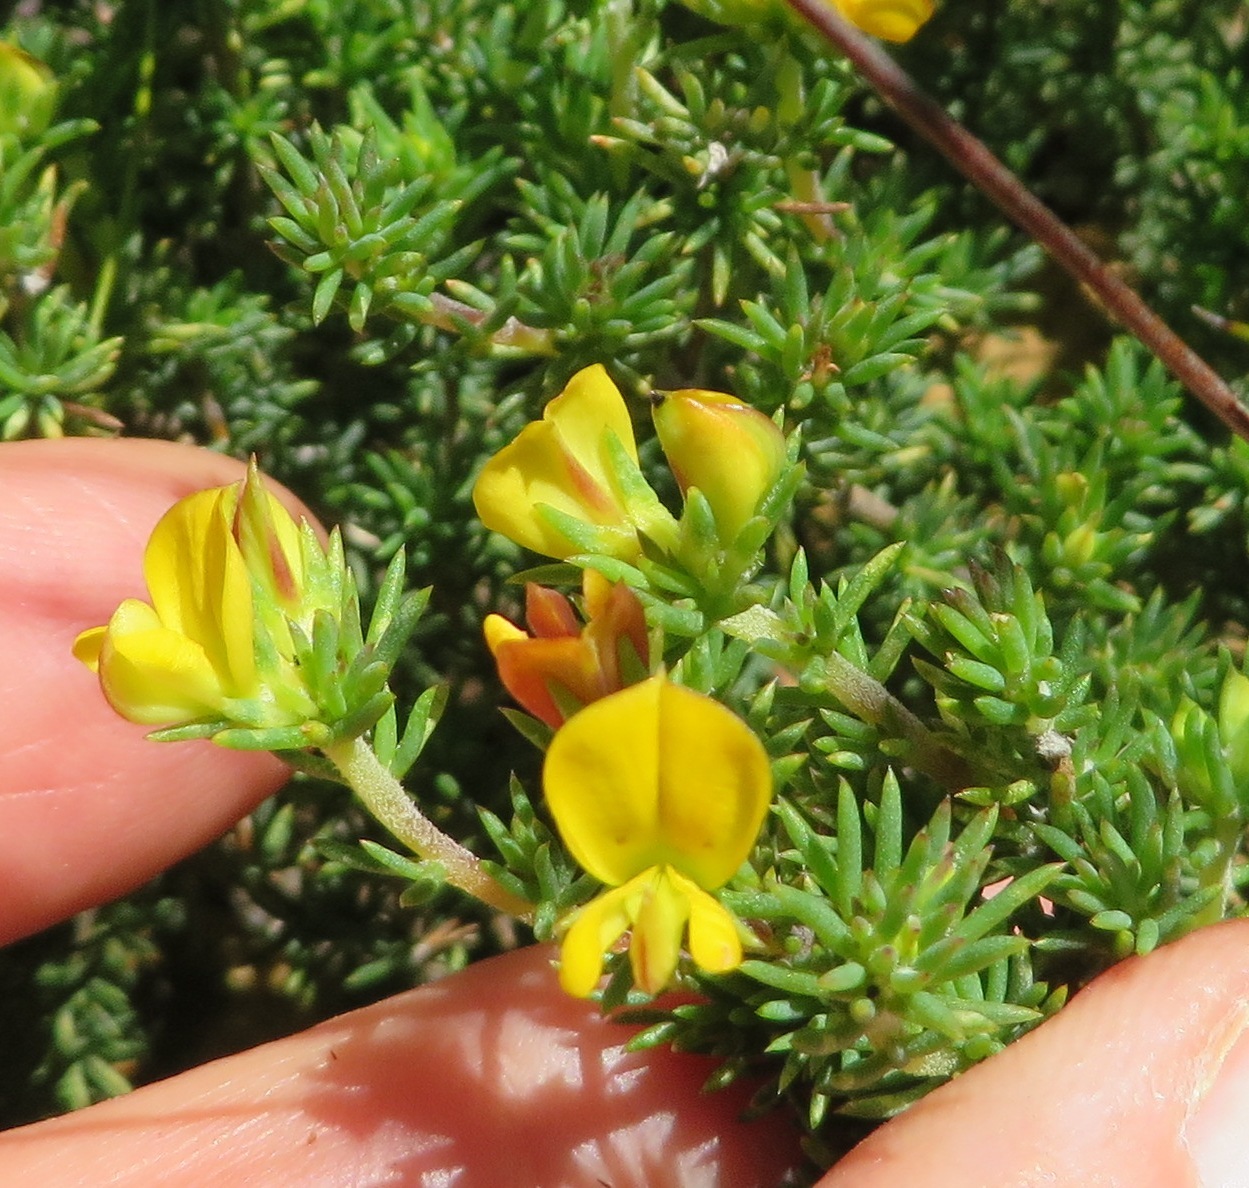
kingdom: Plantae
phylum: Tracheophyta
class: Magnoliopsida
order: Fabales
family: Fabaceae
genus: Aspalathus
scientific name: Aspalathus juniperina
